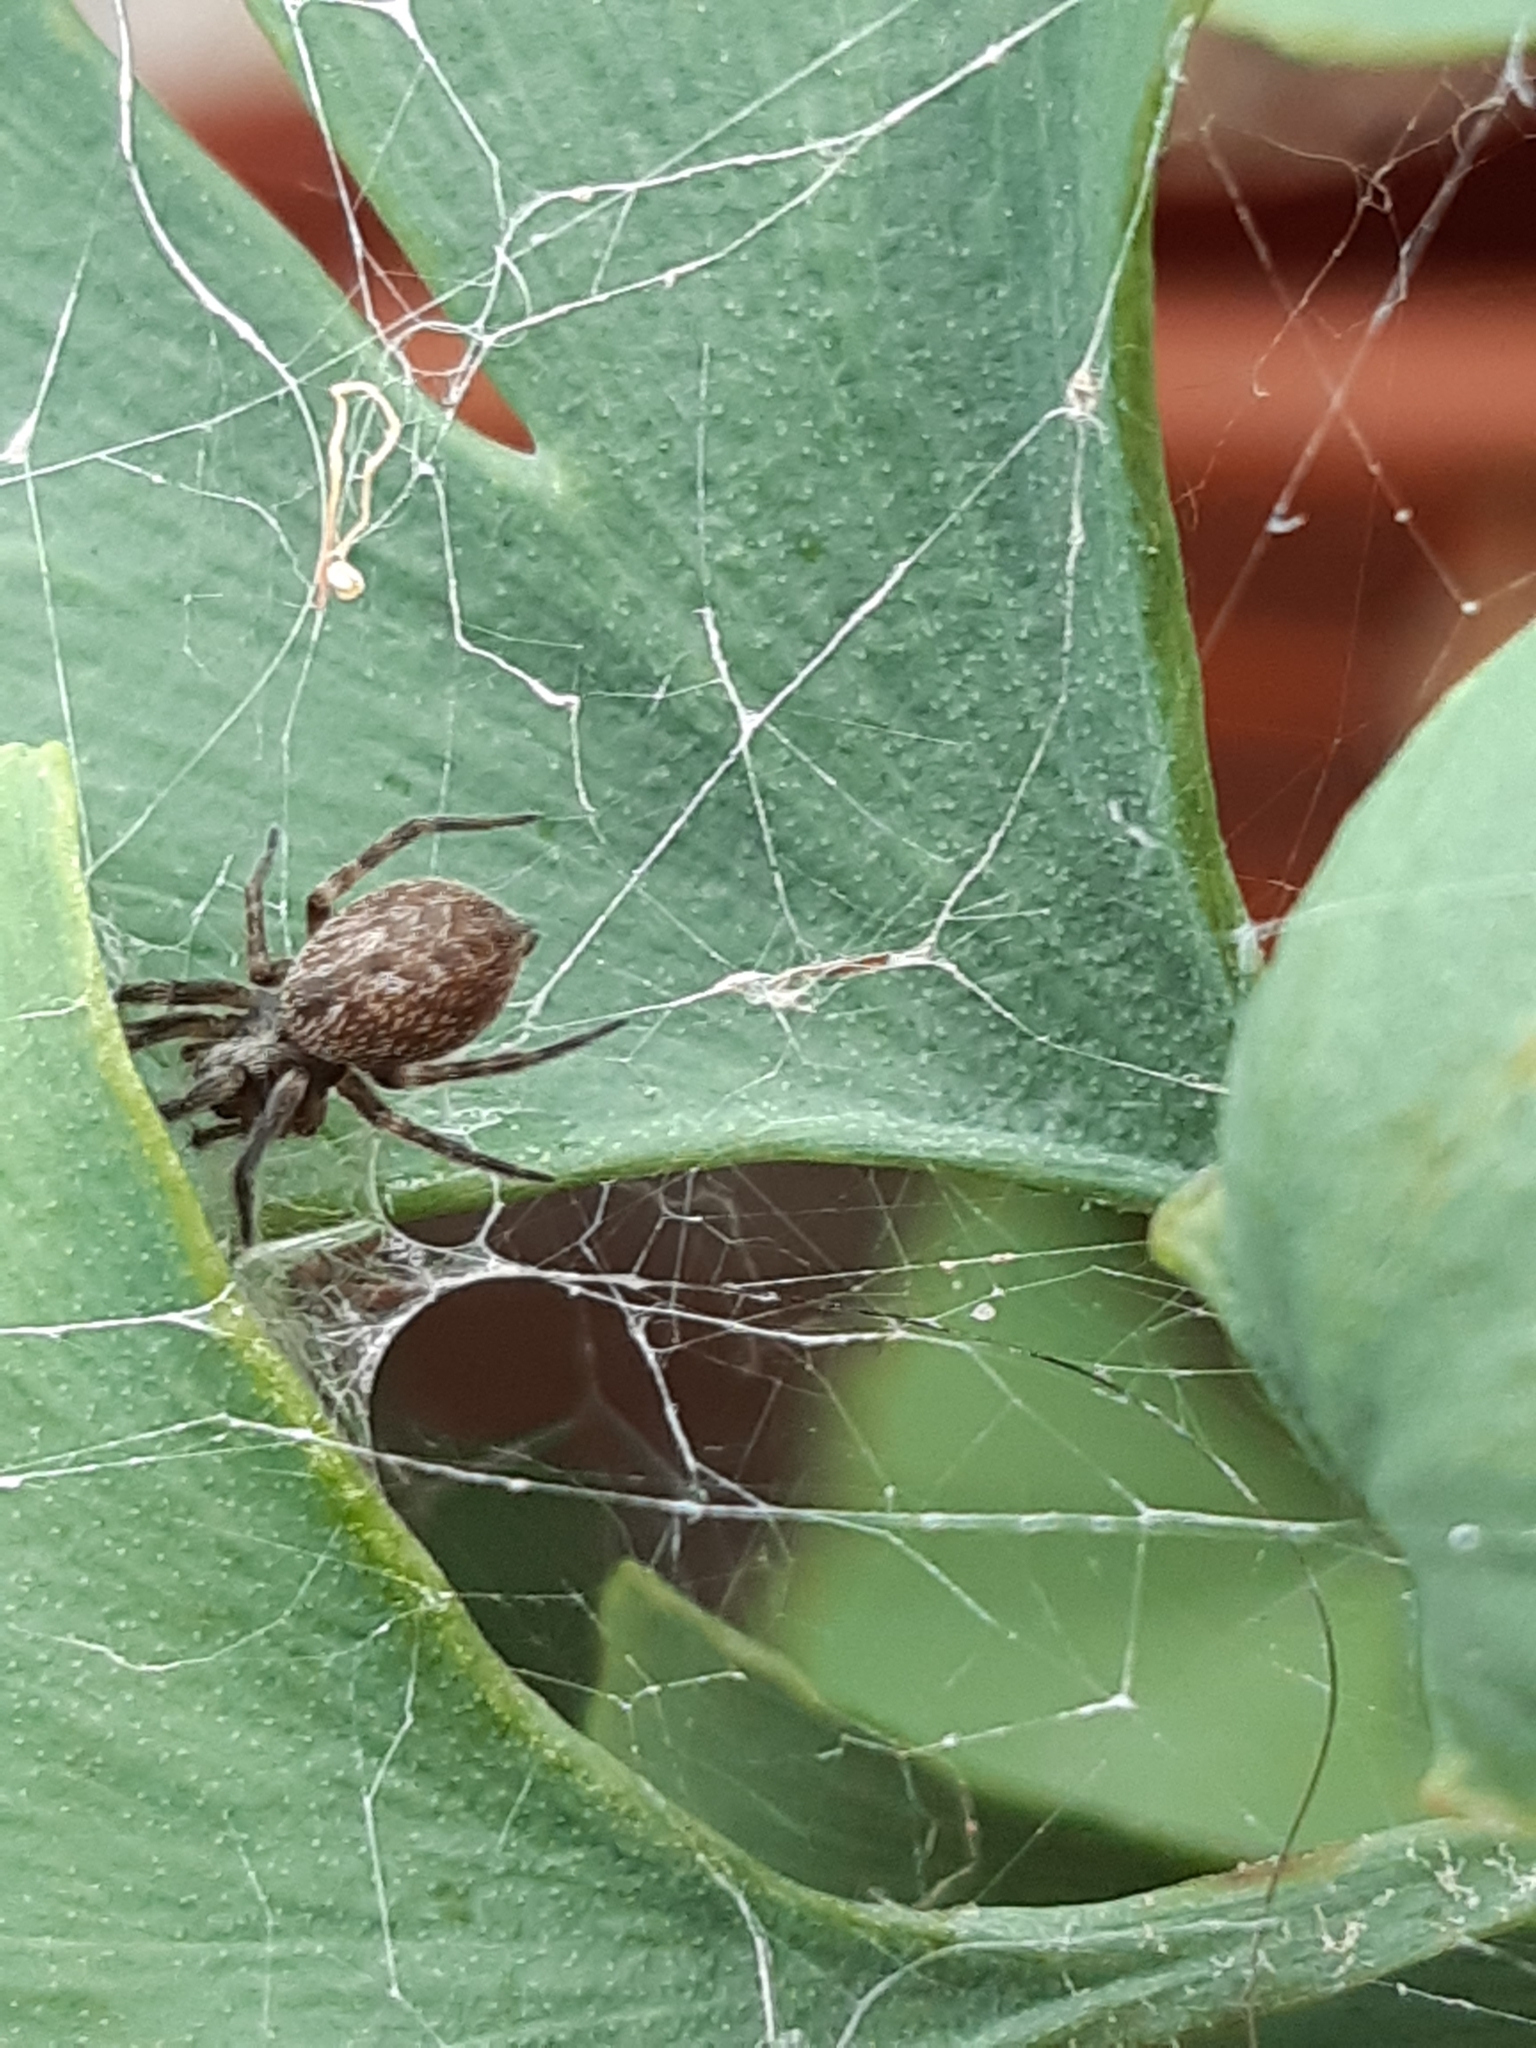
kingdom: Animalia
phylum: Arthropoda
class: Arachnida
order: Araneae
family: Desidae
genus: Badumna
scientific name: Badumna longinqua
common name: Gray house spider
